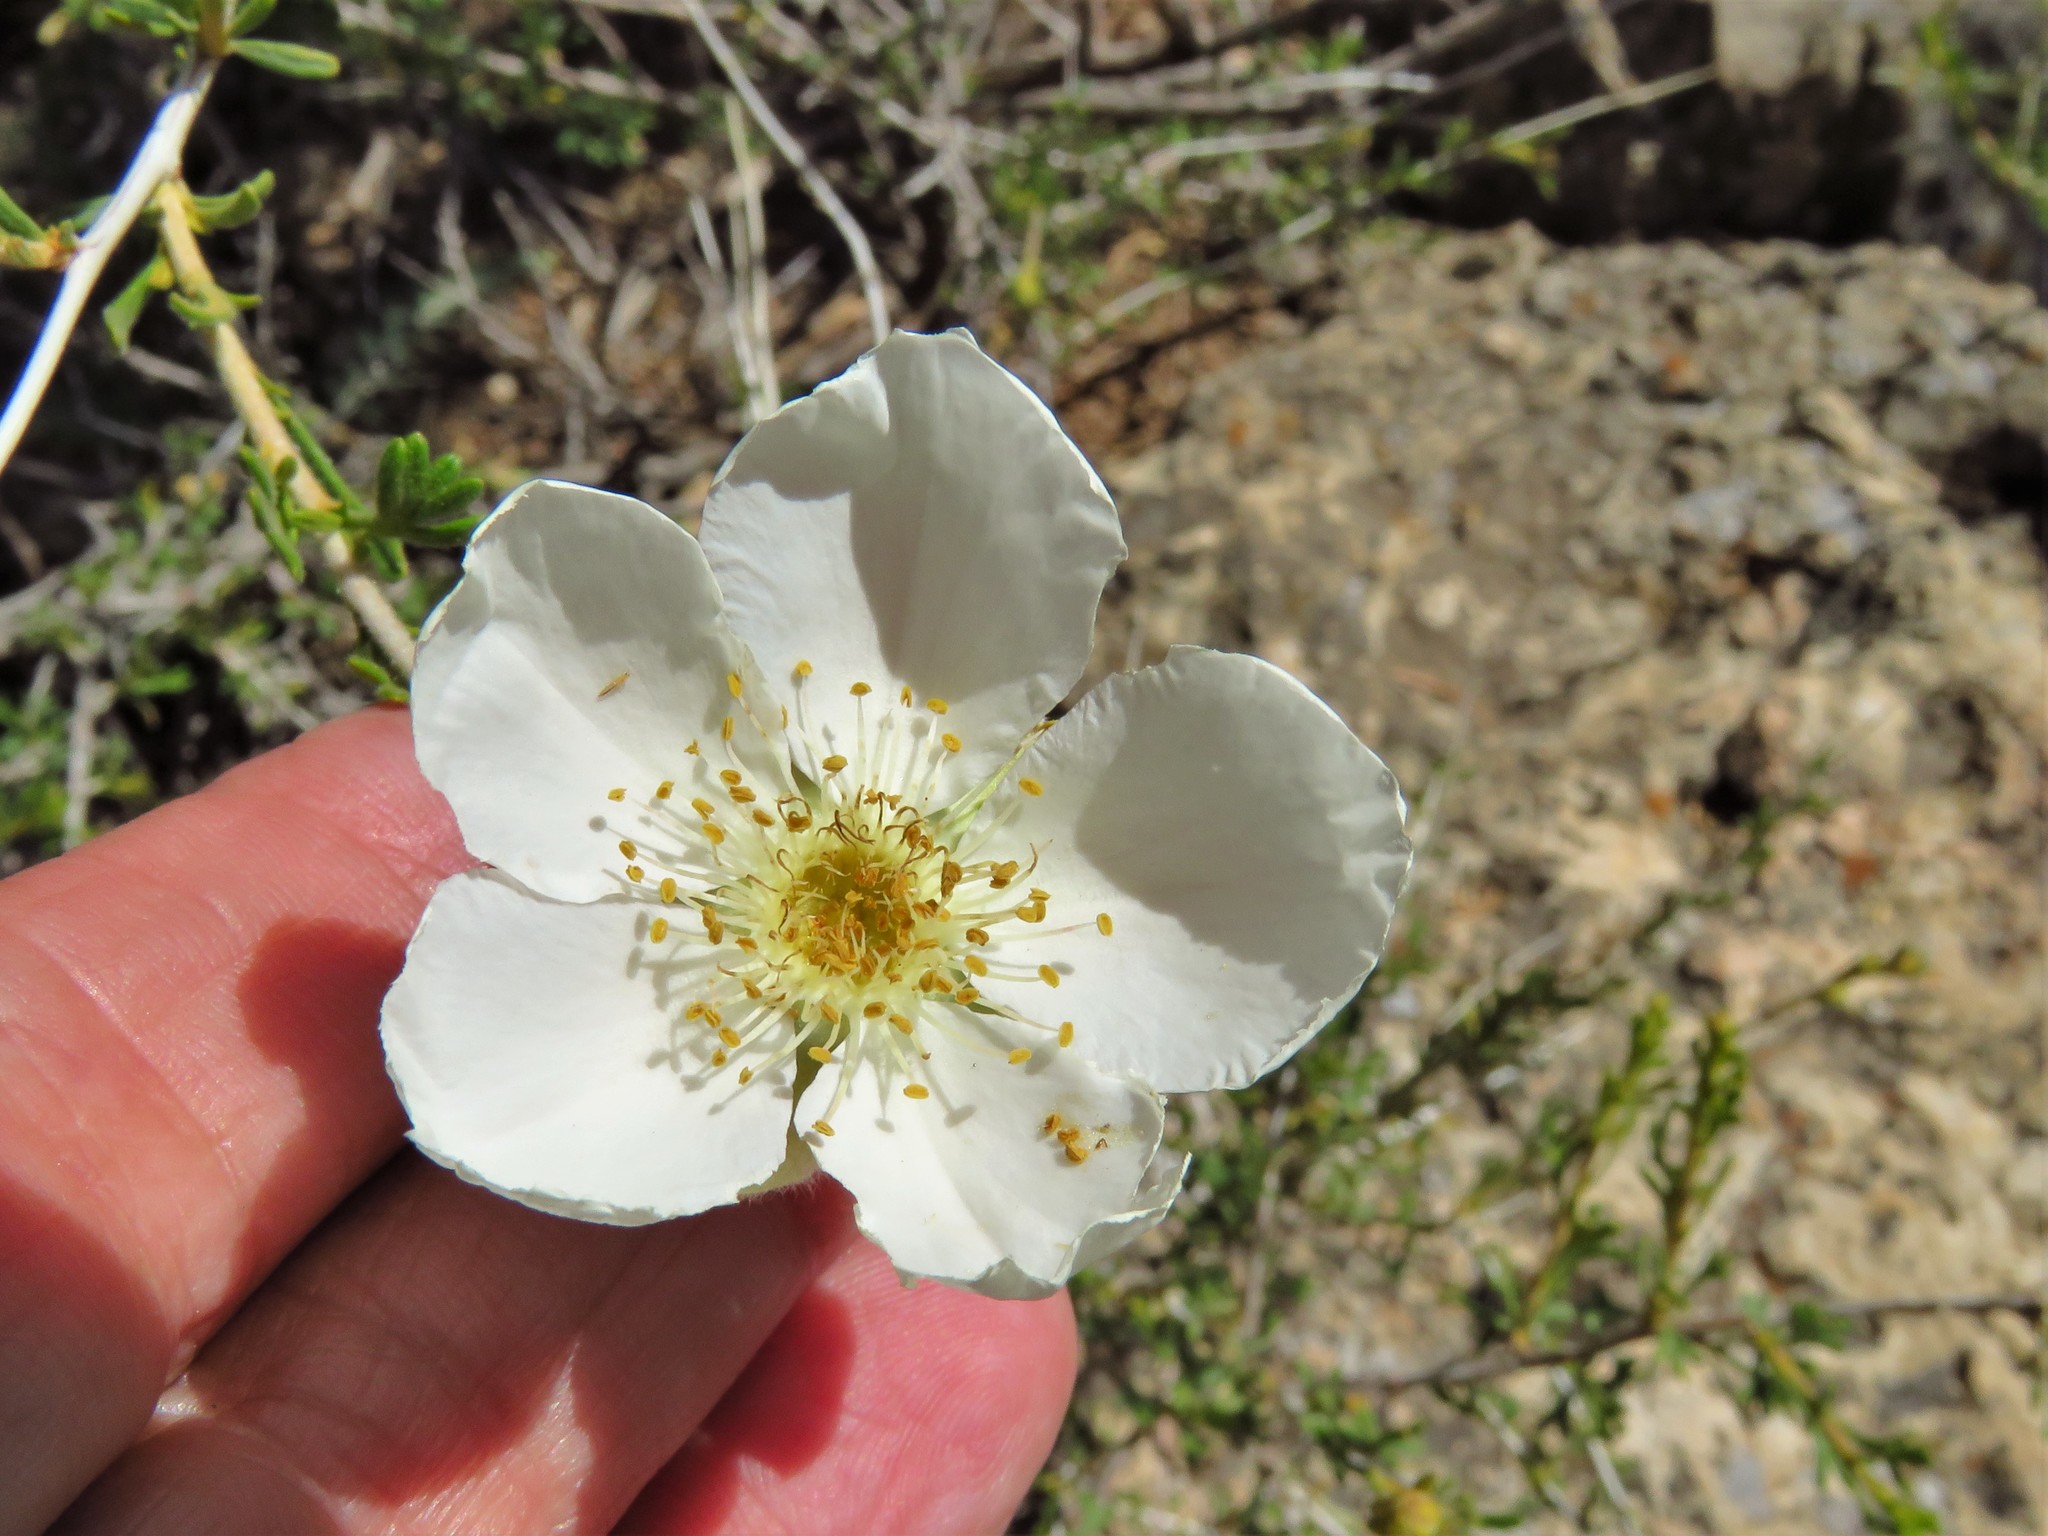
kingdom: Plantae
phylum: Tracheophyta
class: Magnoliopsida
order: Rosales
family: Rosaceae
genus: Fallugia
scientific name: Fallugia paradoxa
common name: Apache-plume
